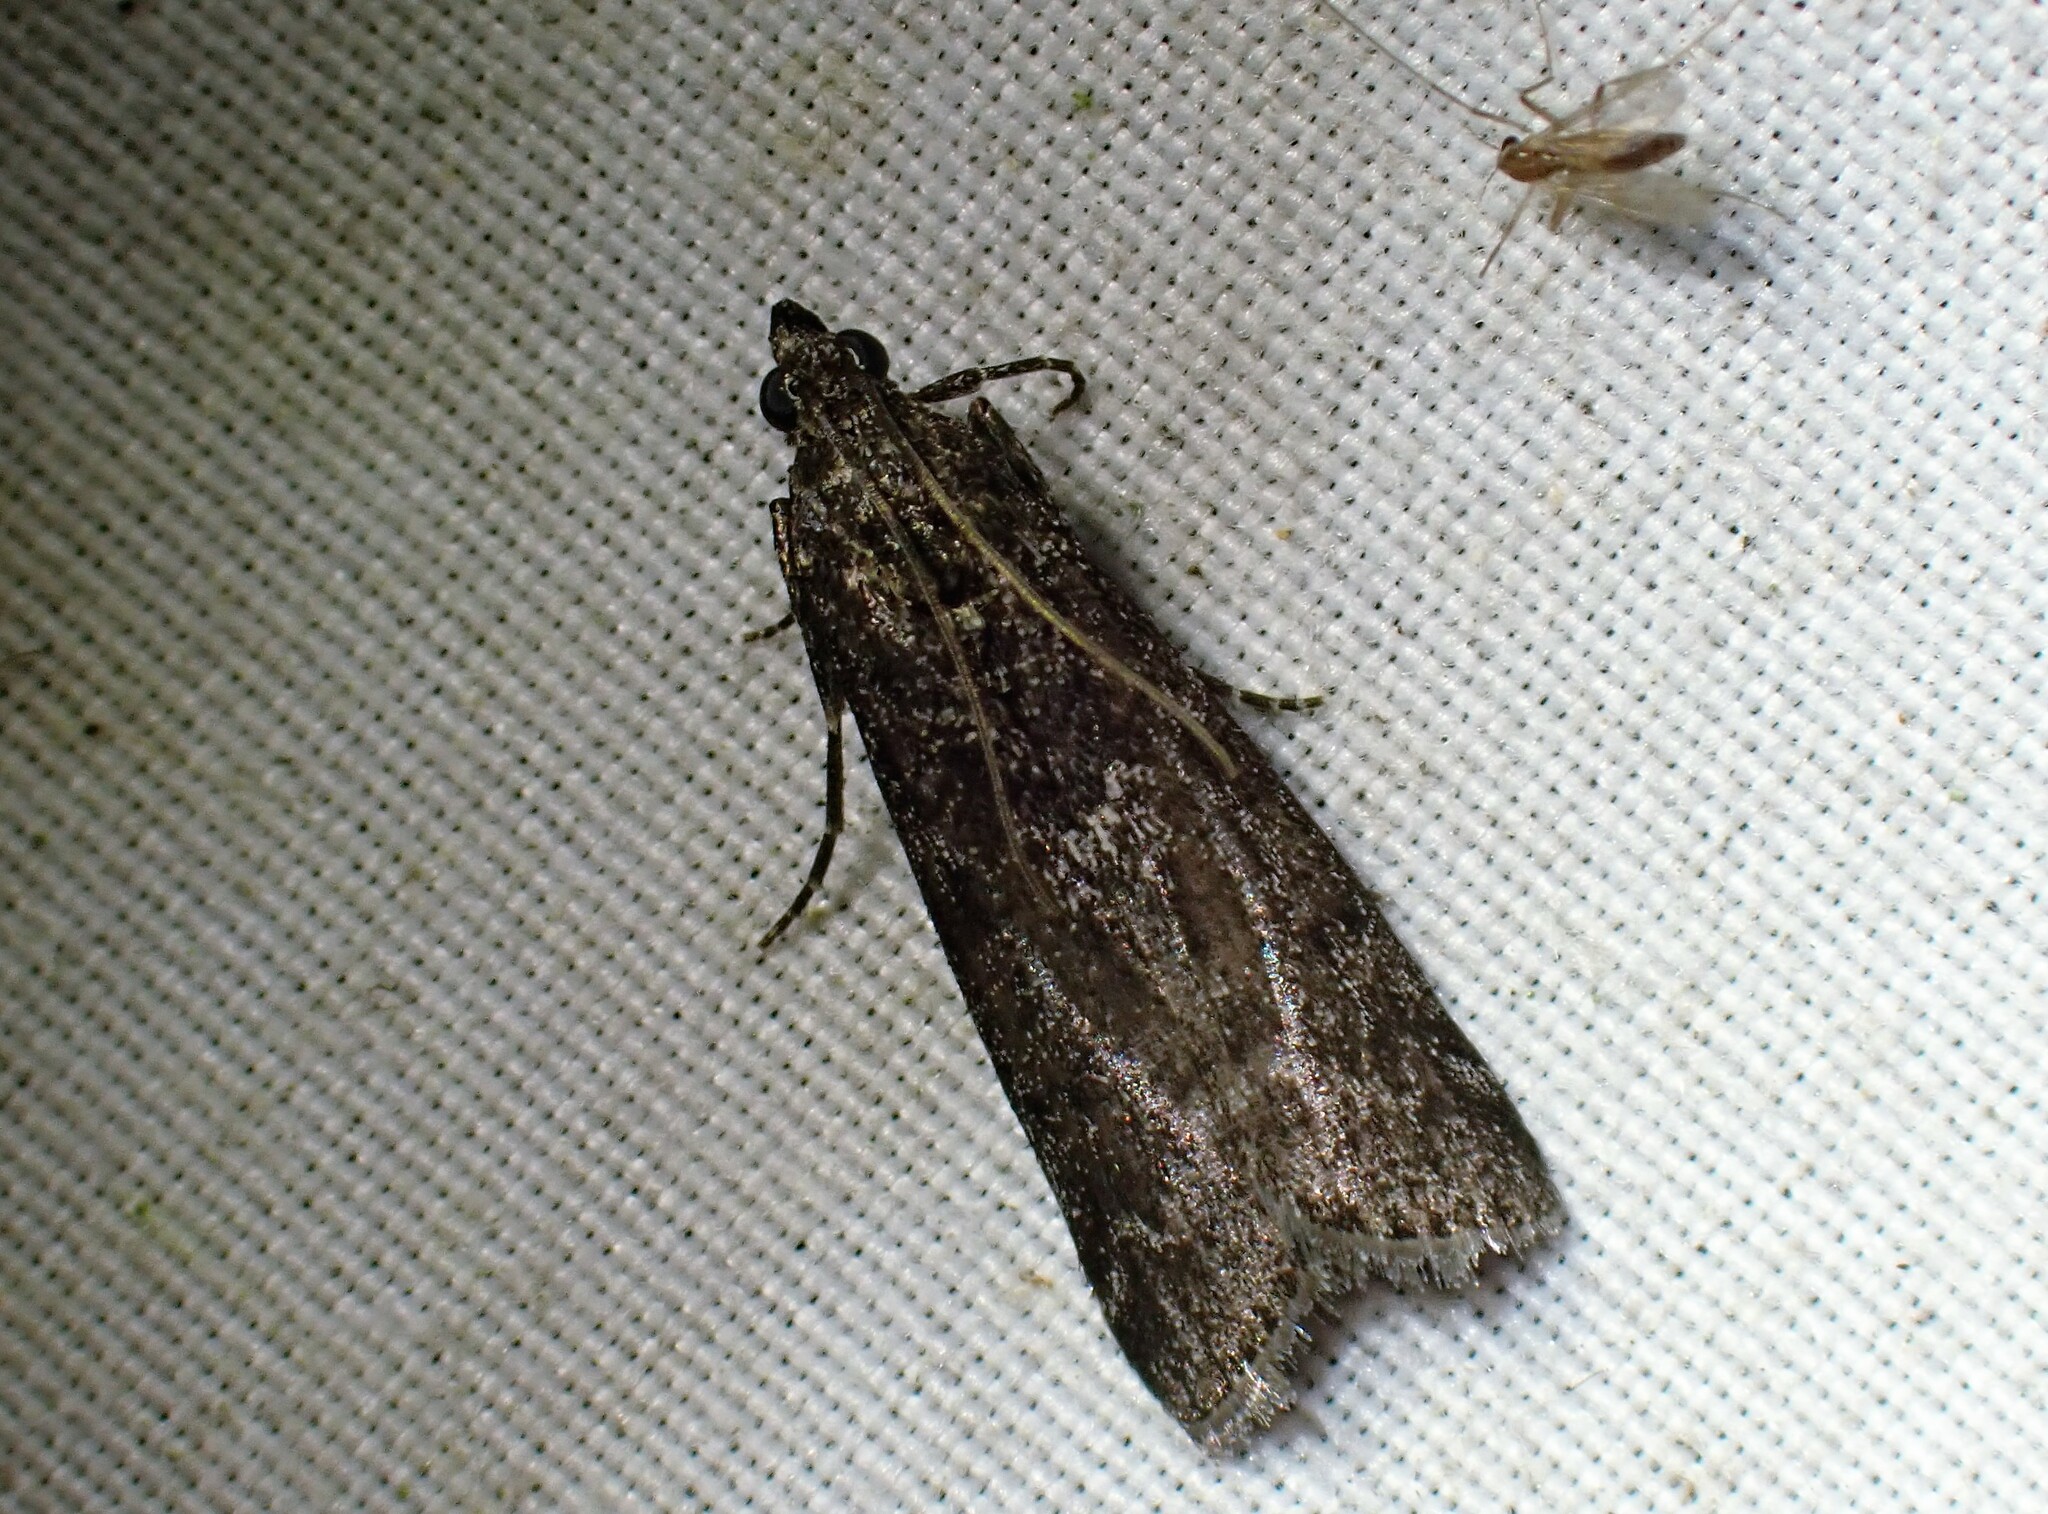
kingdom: Animalia
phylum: Arthropoda
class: Insecta
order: Lepidoptera
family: Pyralidae
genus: Pyla
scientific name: Pyla fusca
